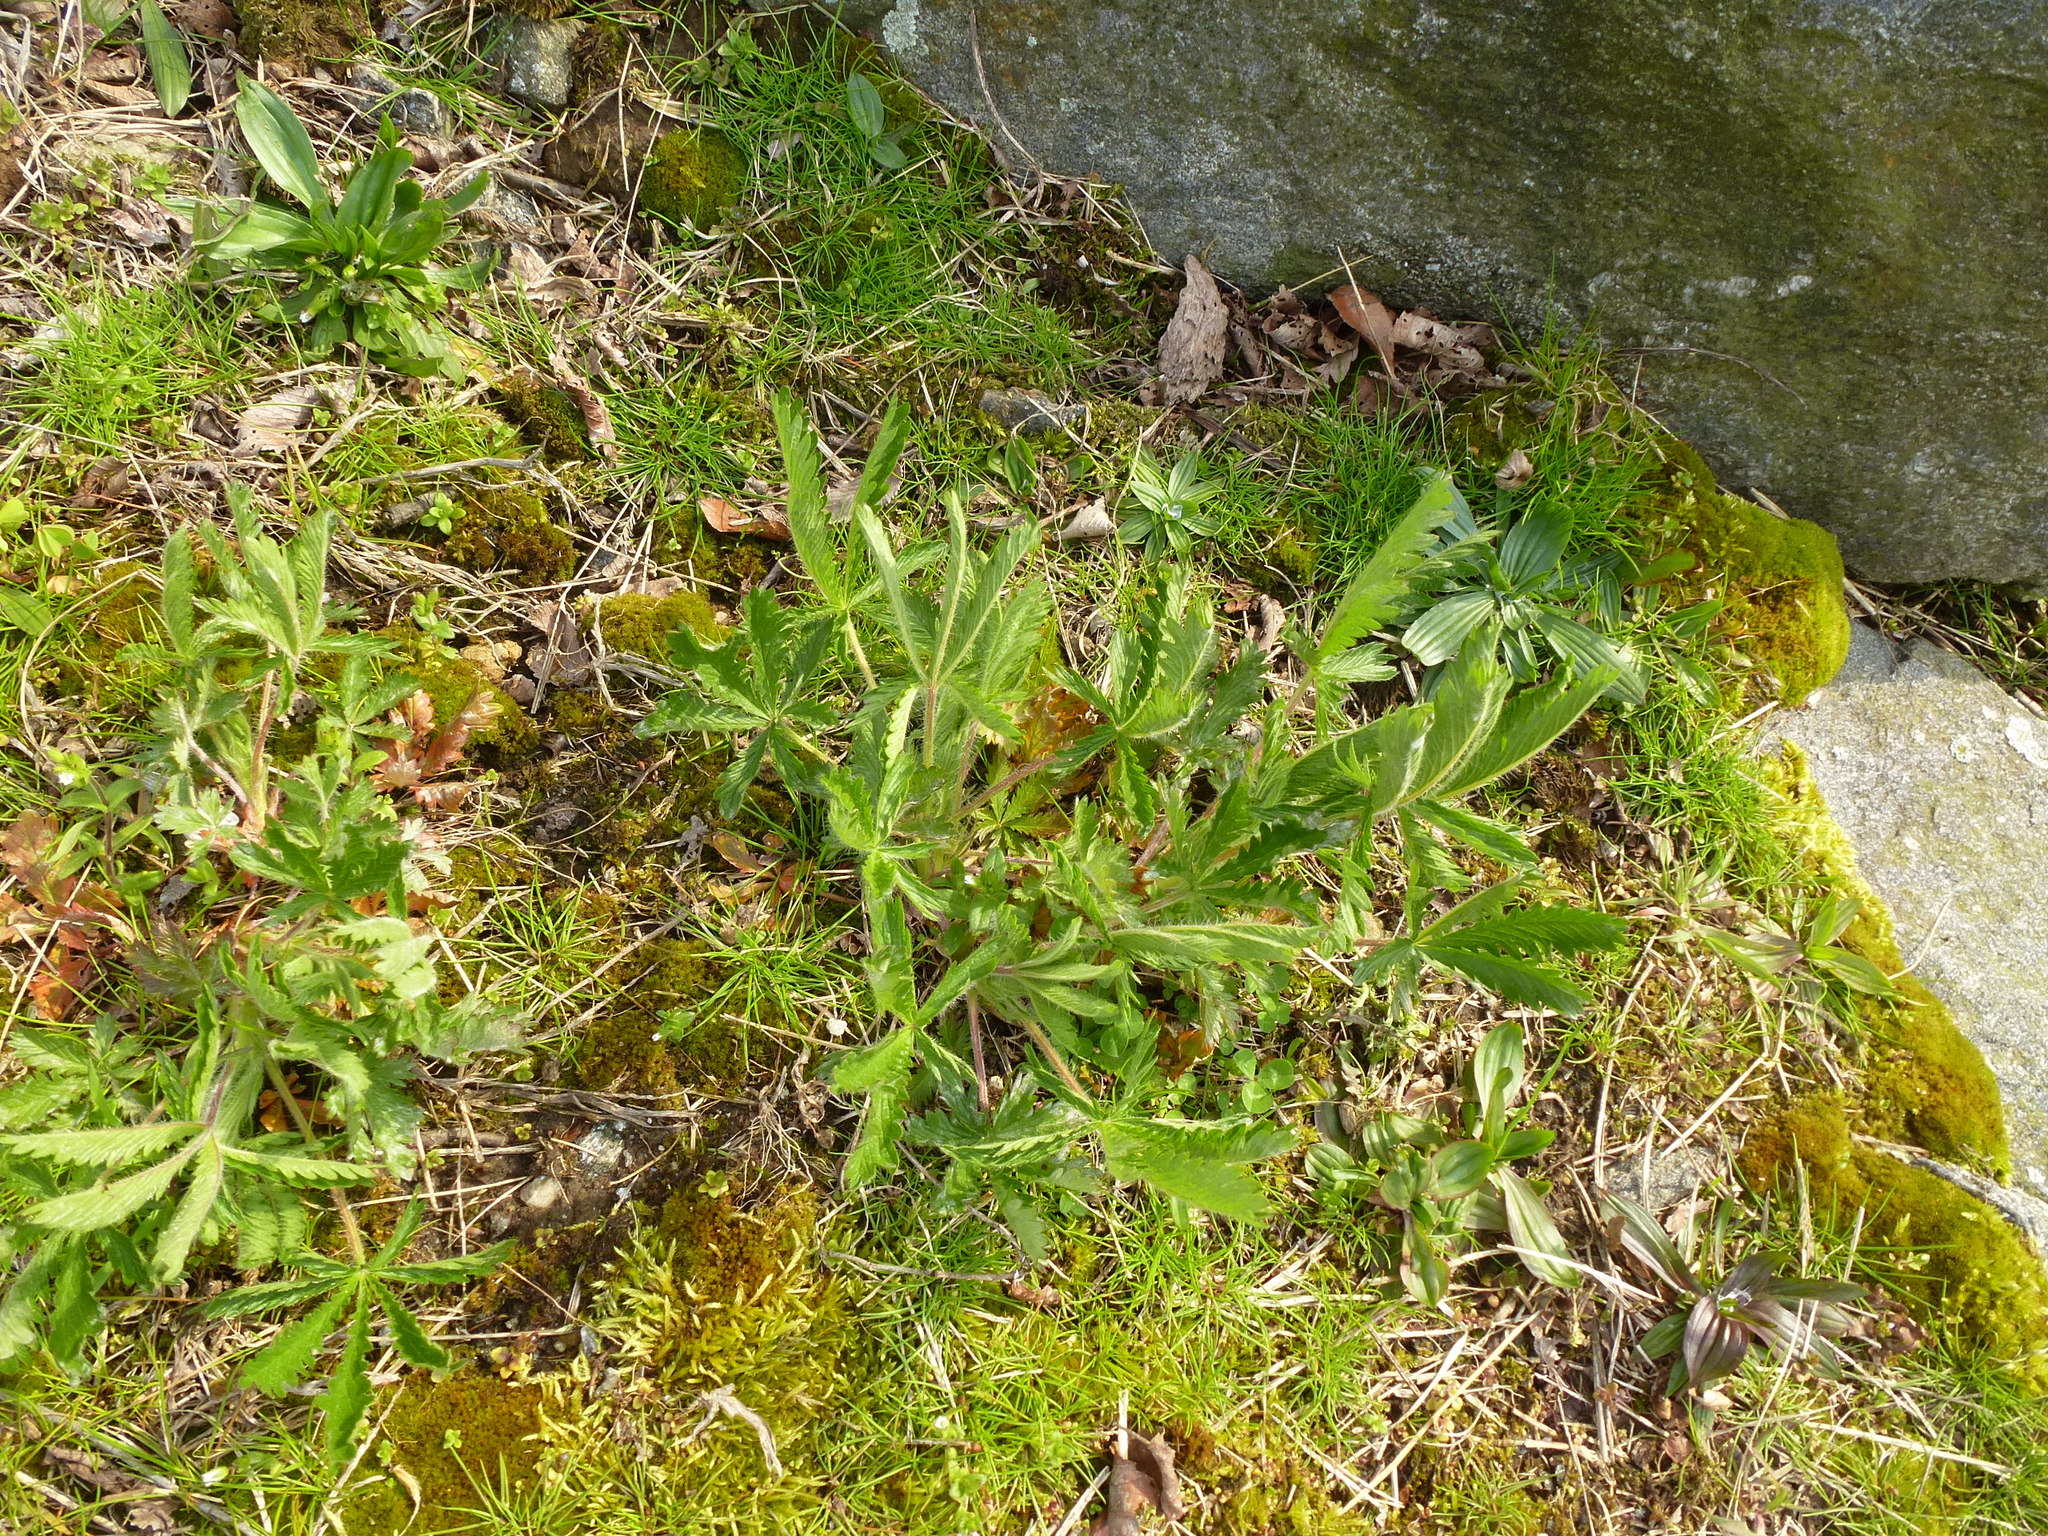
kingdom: Plantae
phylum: Tracheophyta
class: Magnoliopsida
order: Rosales
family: Rosaceae
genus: Potentilla
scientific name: Potentilla recta
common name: Sulphur cinquefoil
